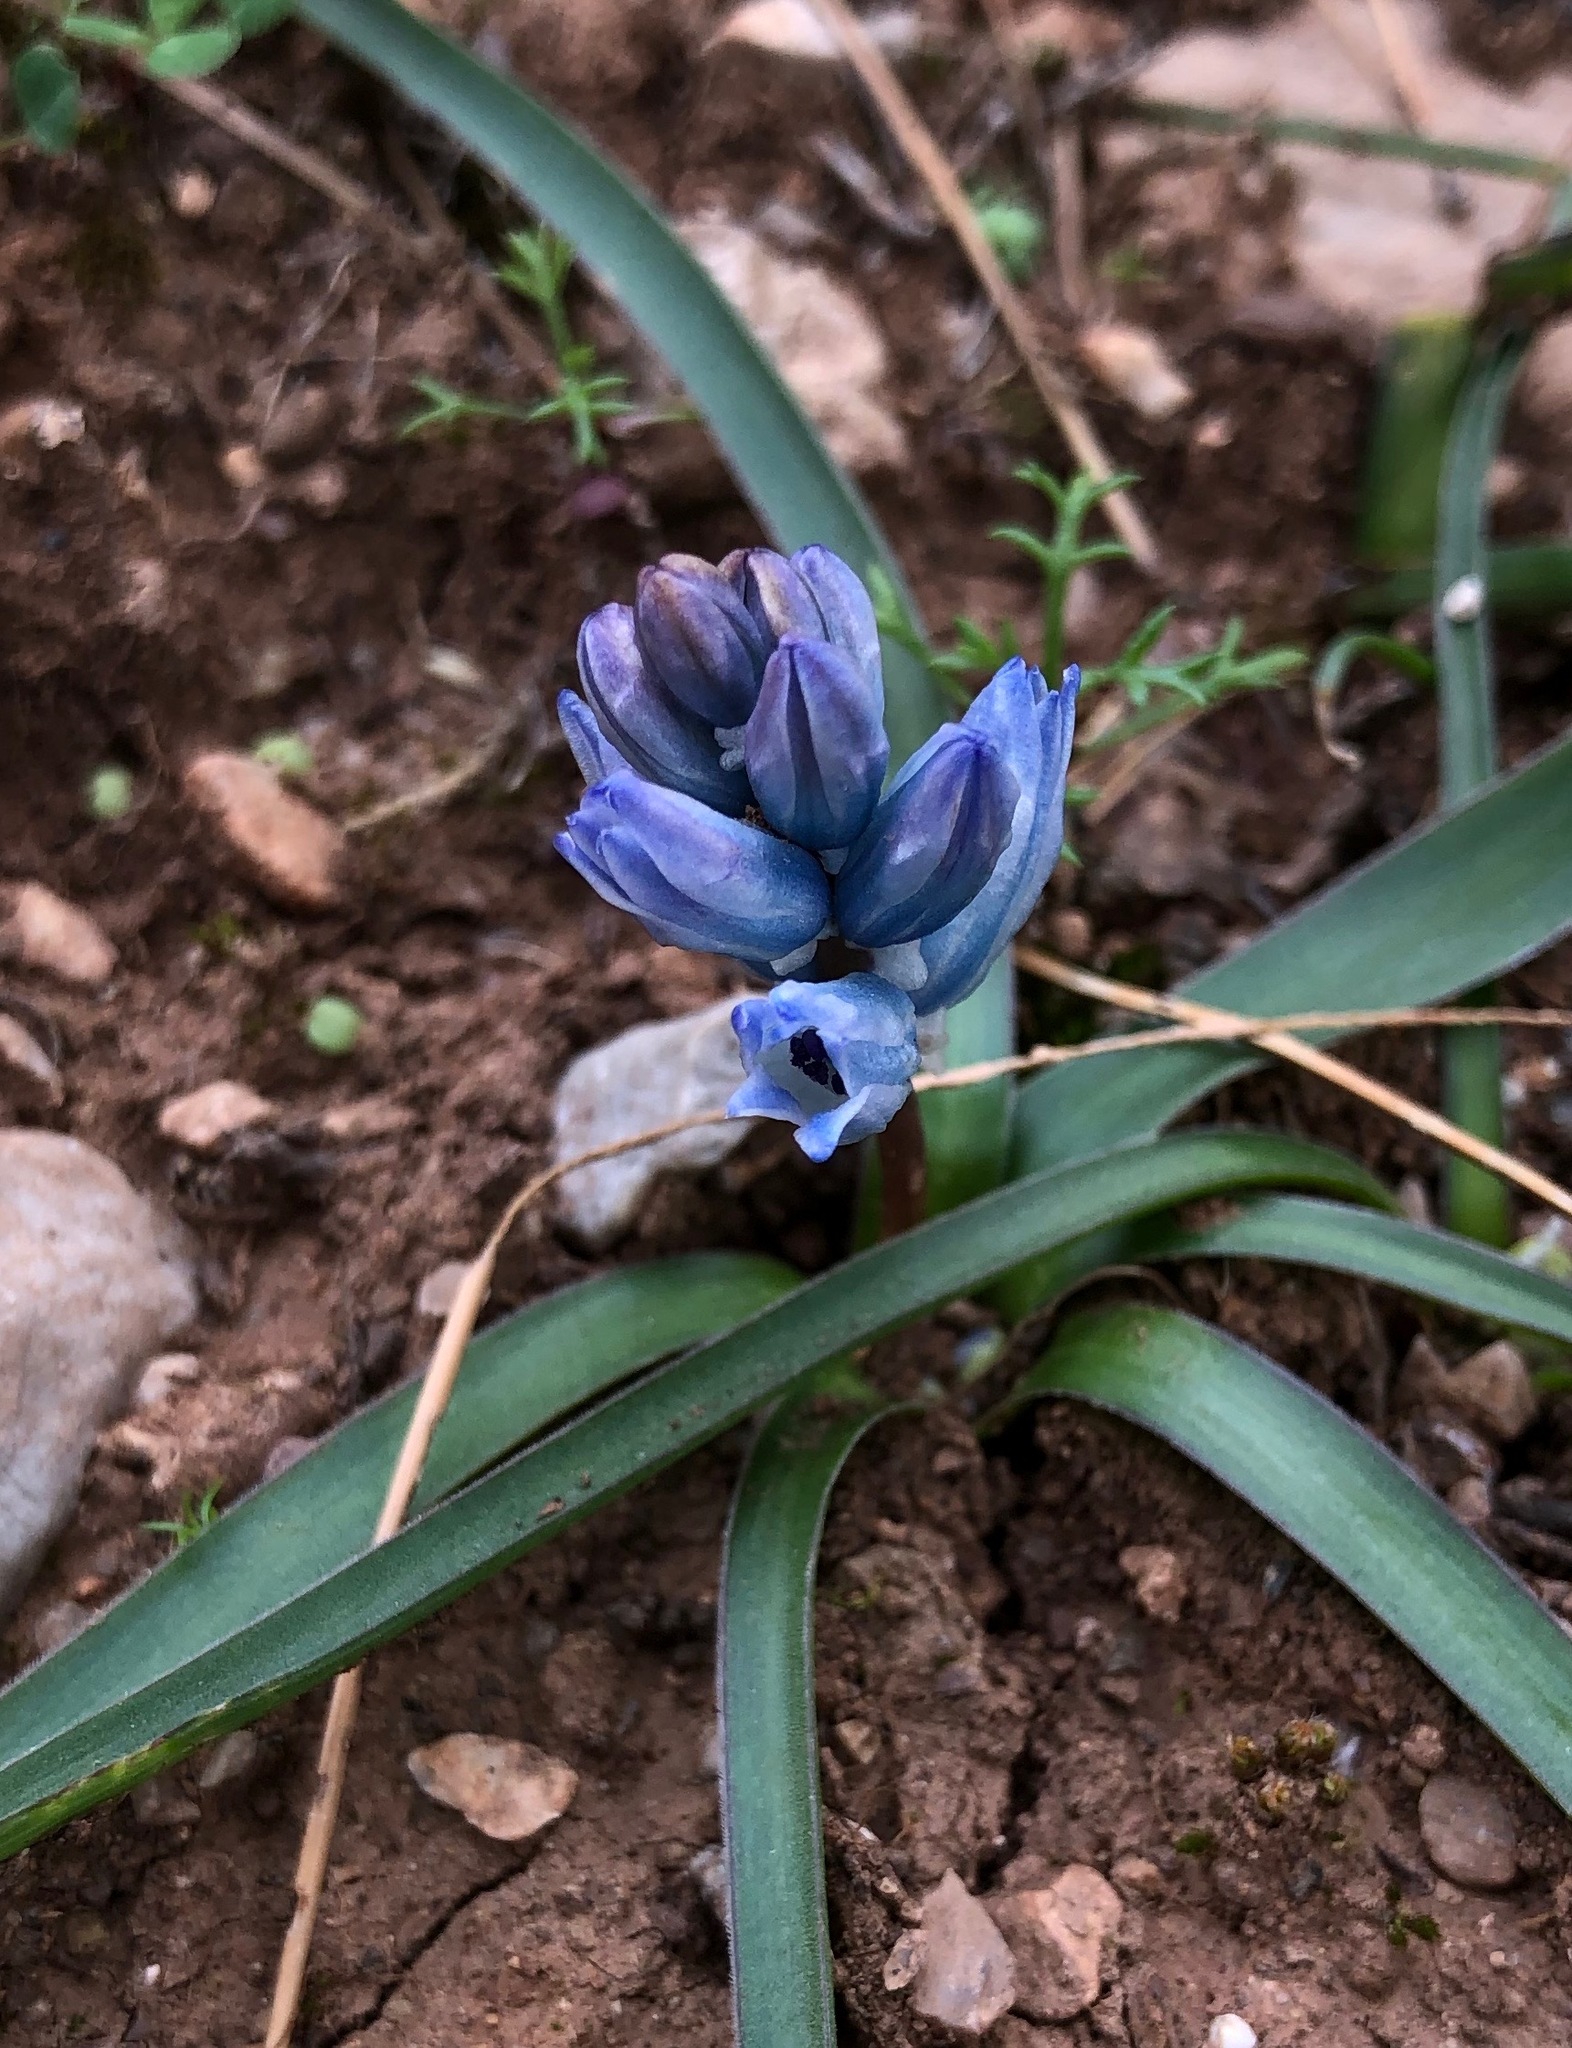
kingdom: Plantae
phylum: Tracheophyta
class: Liliopsida
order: Asparagales
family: Asparagaceae
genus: Bellevalia
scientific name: Bellevalia hyacinthoides
